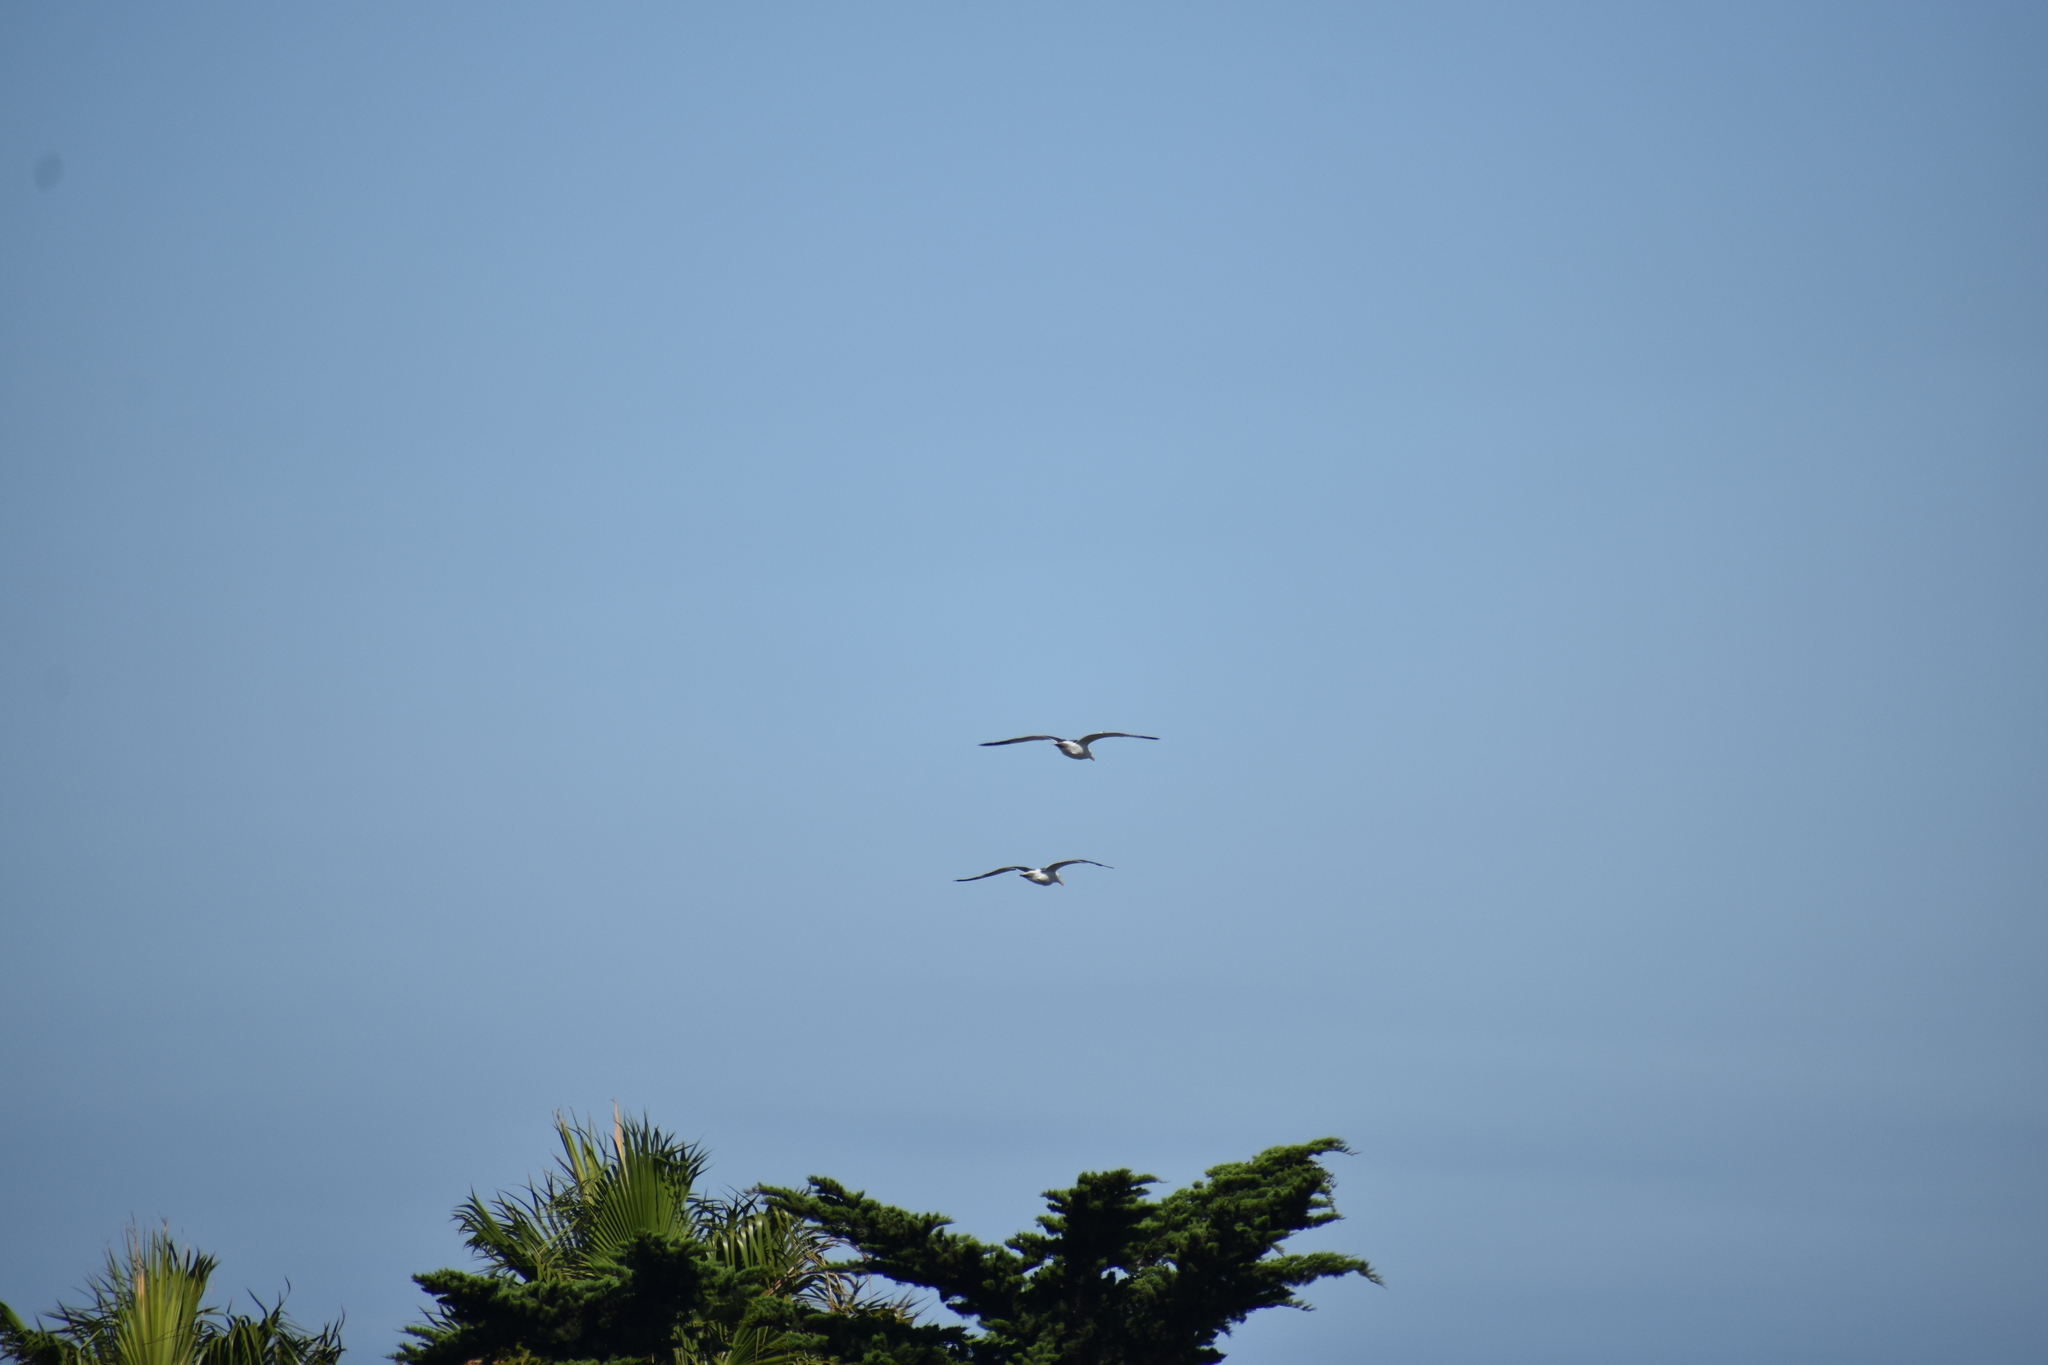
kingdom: Animalia
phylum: Chordata
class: Aves
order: Charadriiformes
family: Laridae
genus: Larus
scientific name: Larus occidentalis
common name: Western gull
